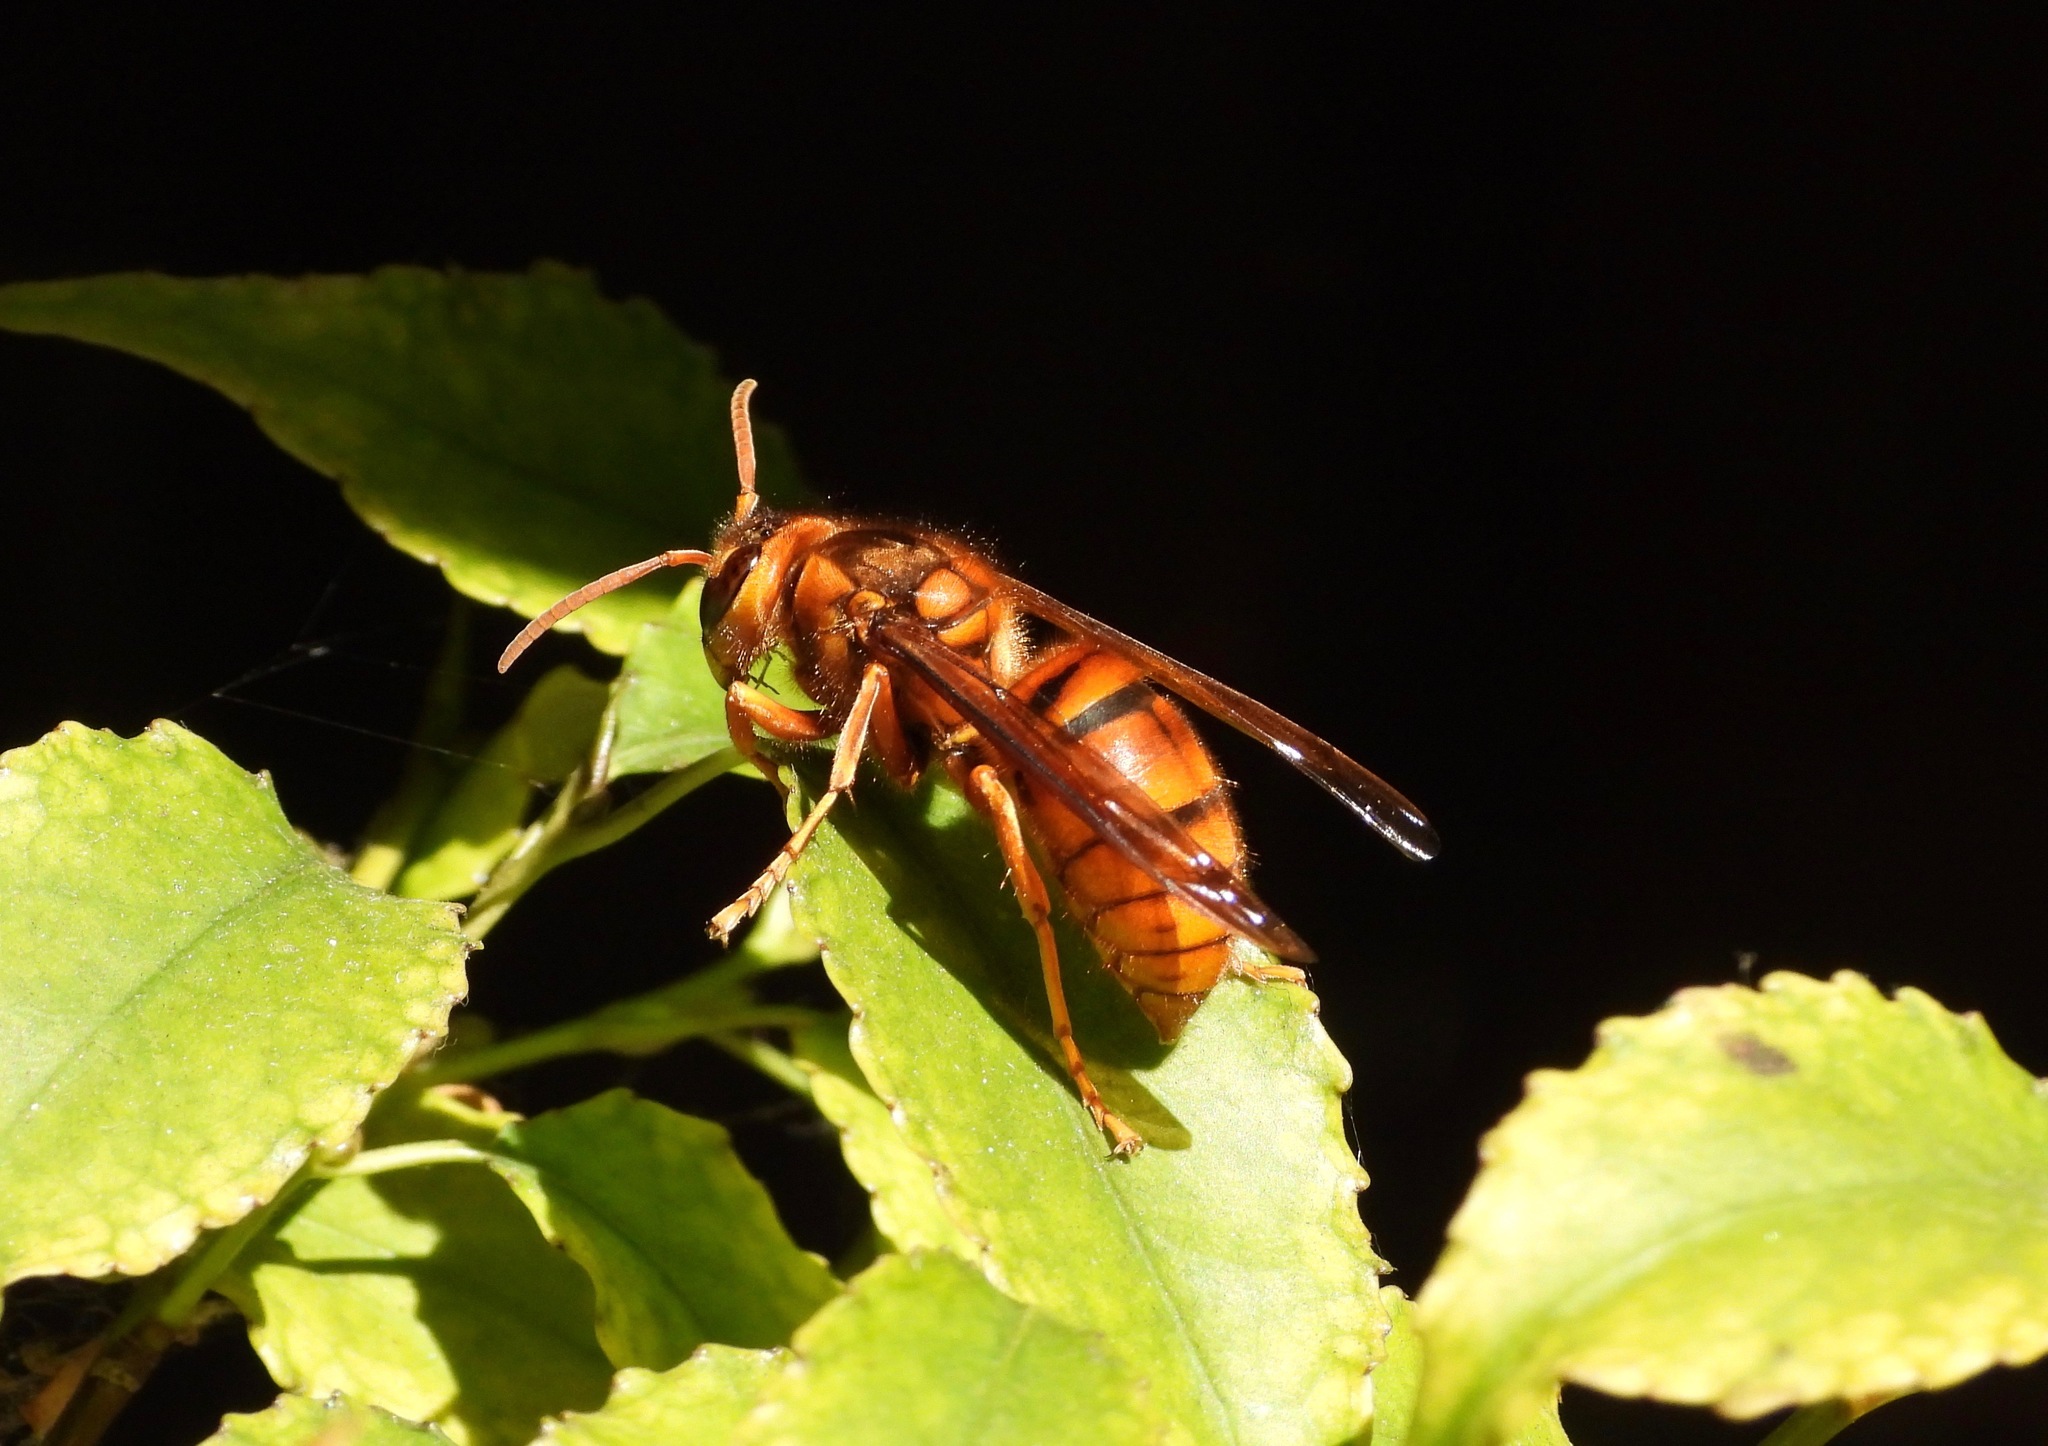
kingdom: Animalia
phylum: Arthropoda
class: Insecta
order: Hymenoptera
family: Vespidae
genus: Vespa
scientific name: Vespa simillima
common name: Vespid wasp
